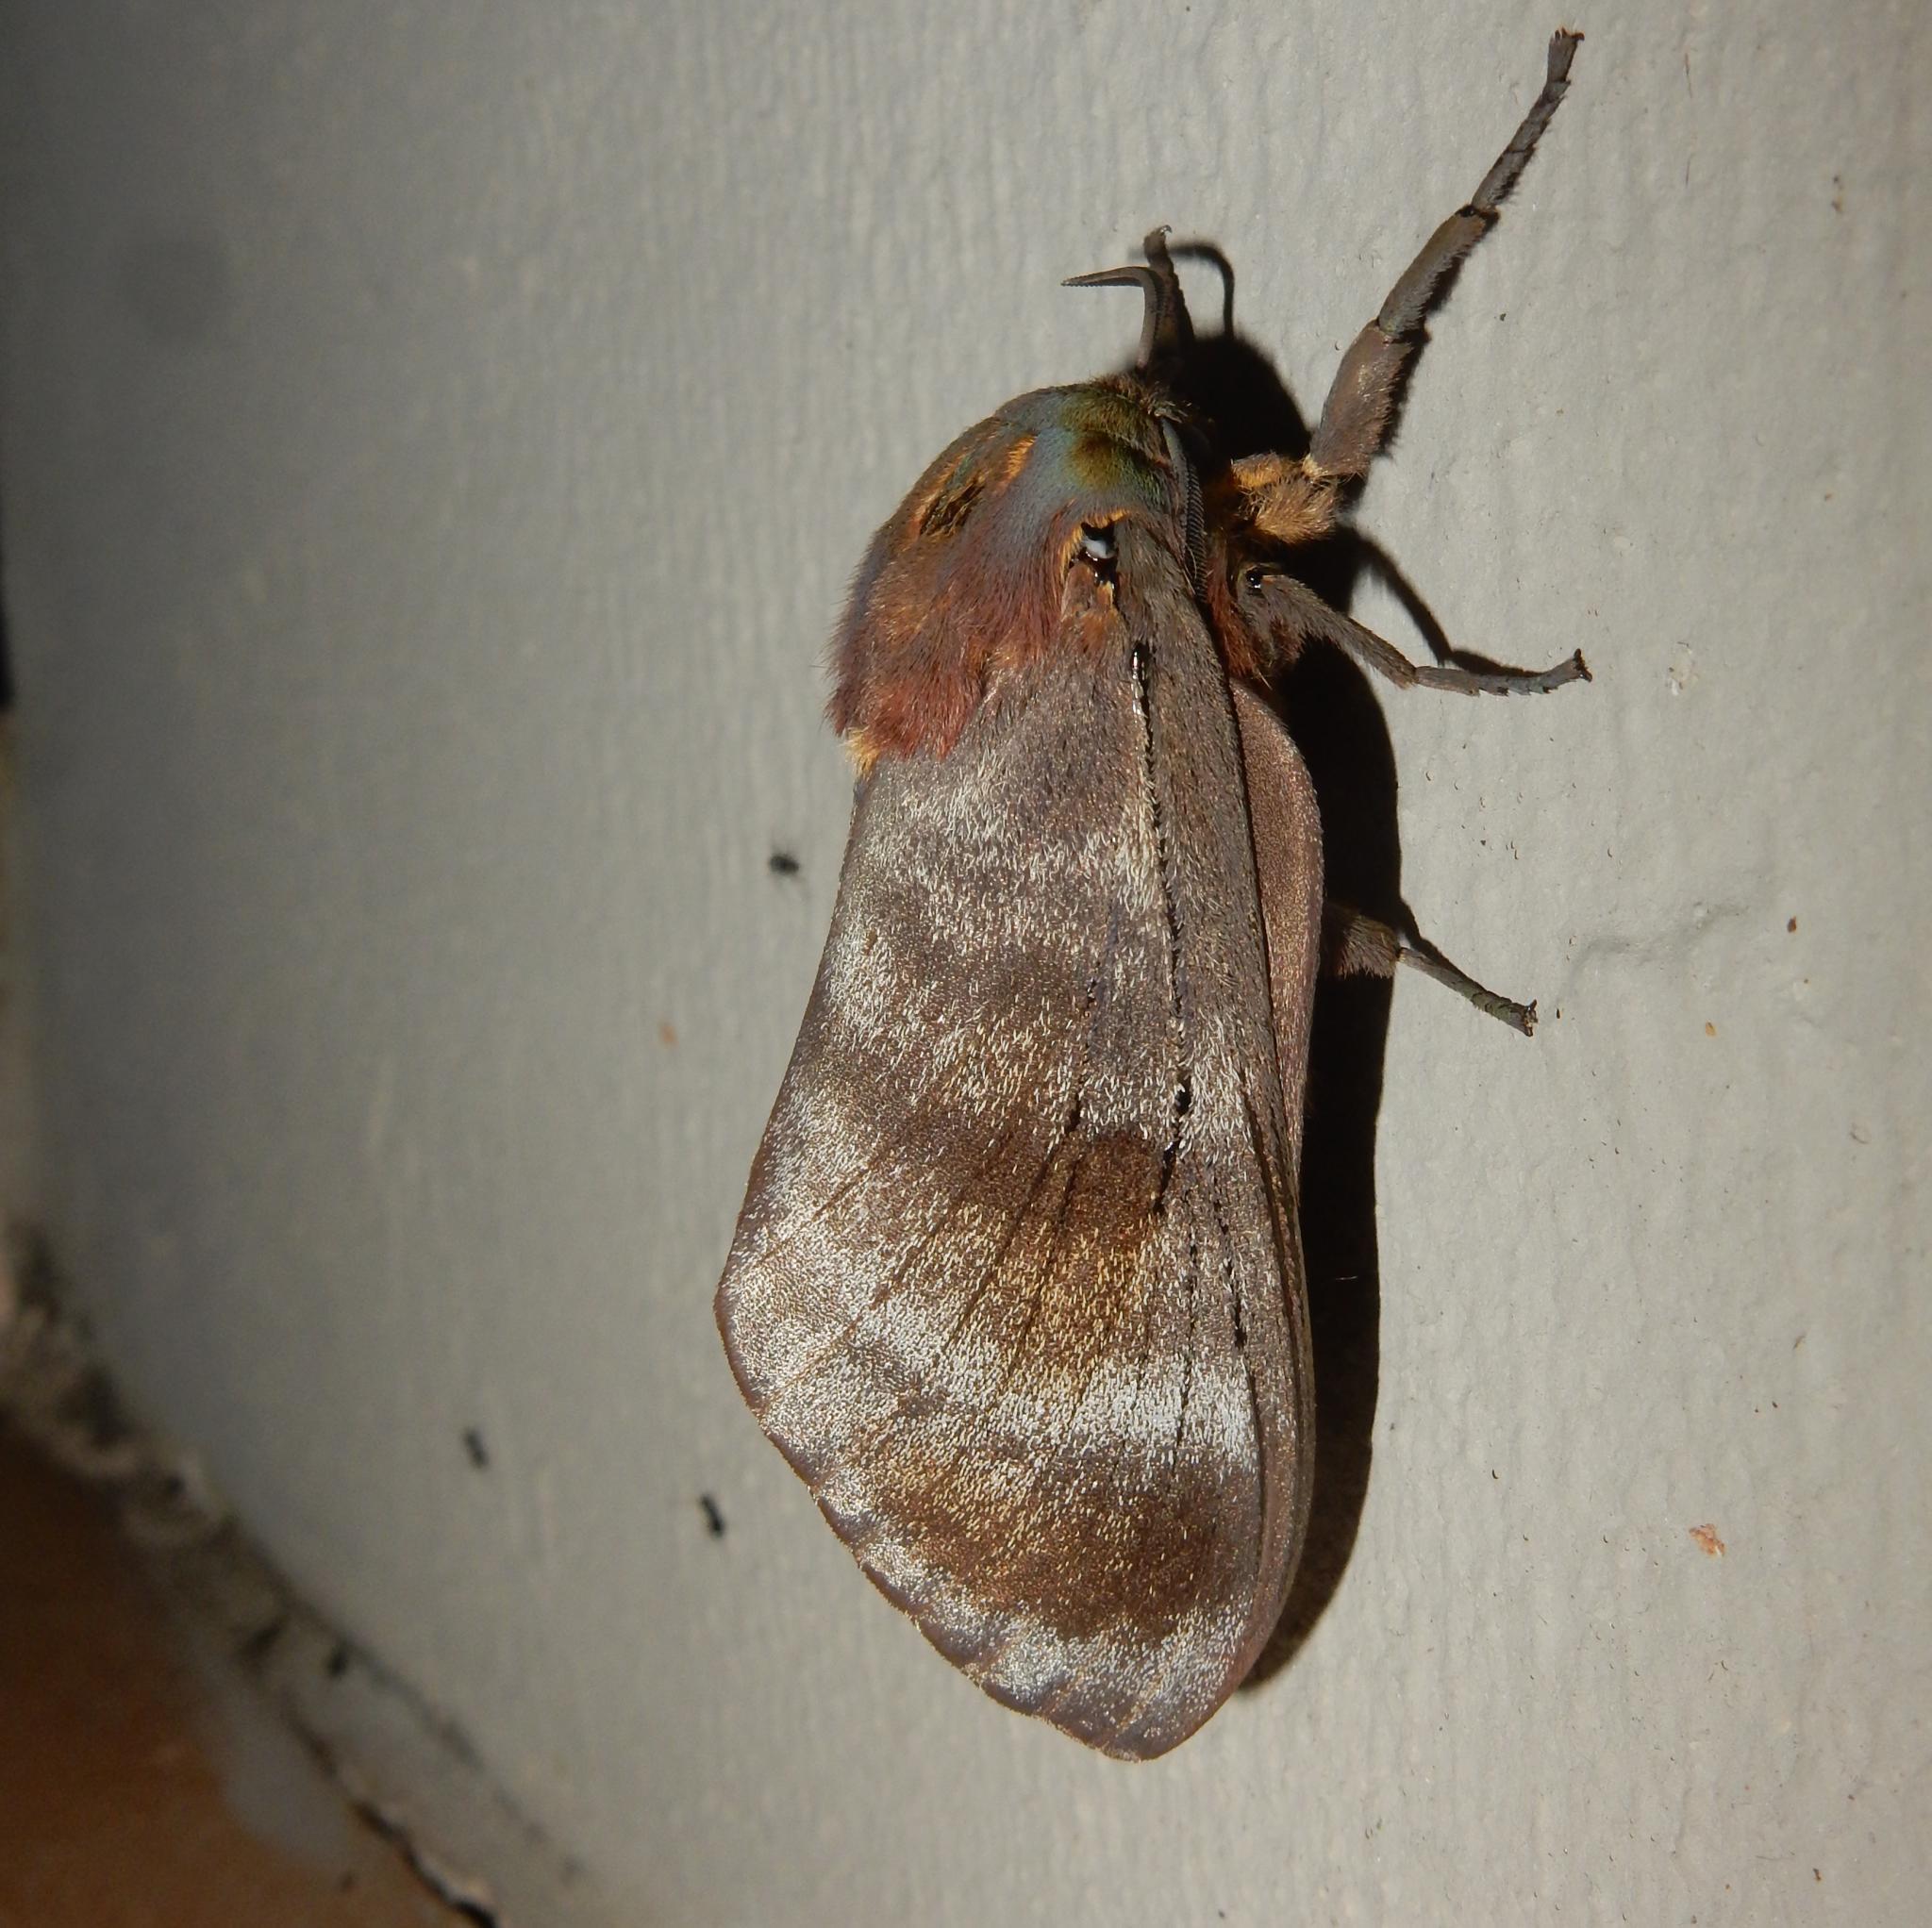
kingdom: Animalia
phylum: Arthropoda
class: Insecta
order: Lepidoptera
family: Lasiocampidae
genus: Gonometa
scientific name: Gonometa postica
